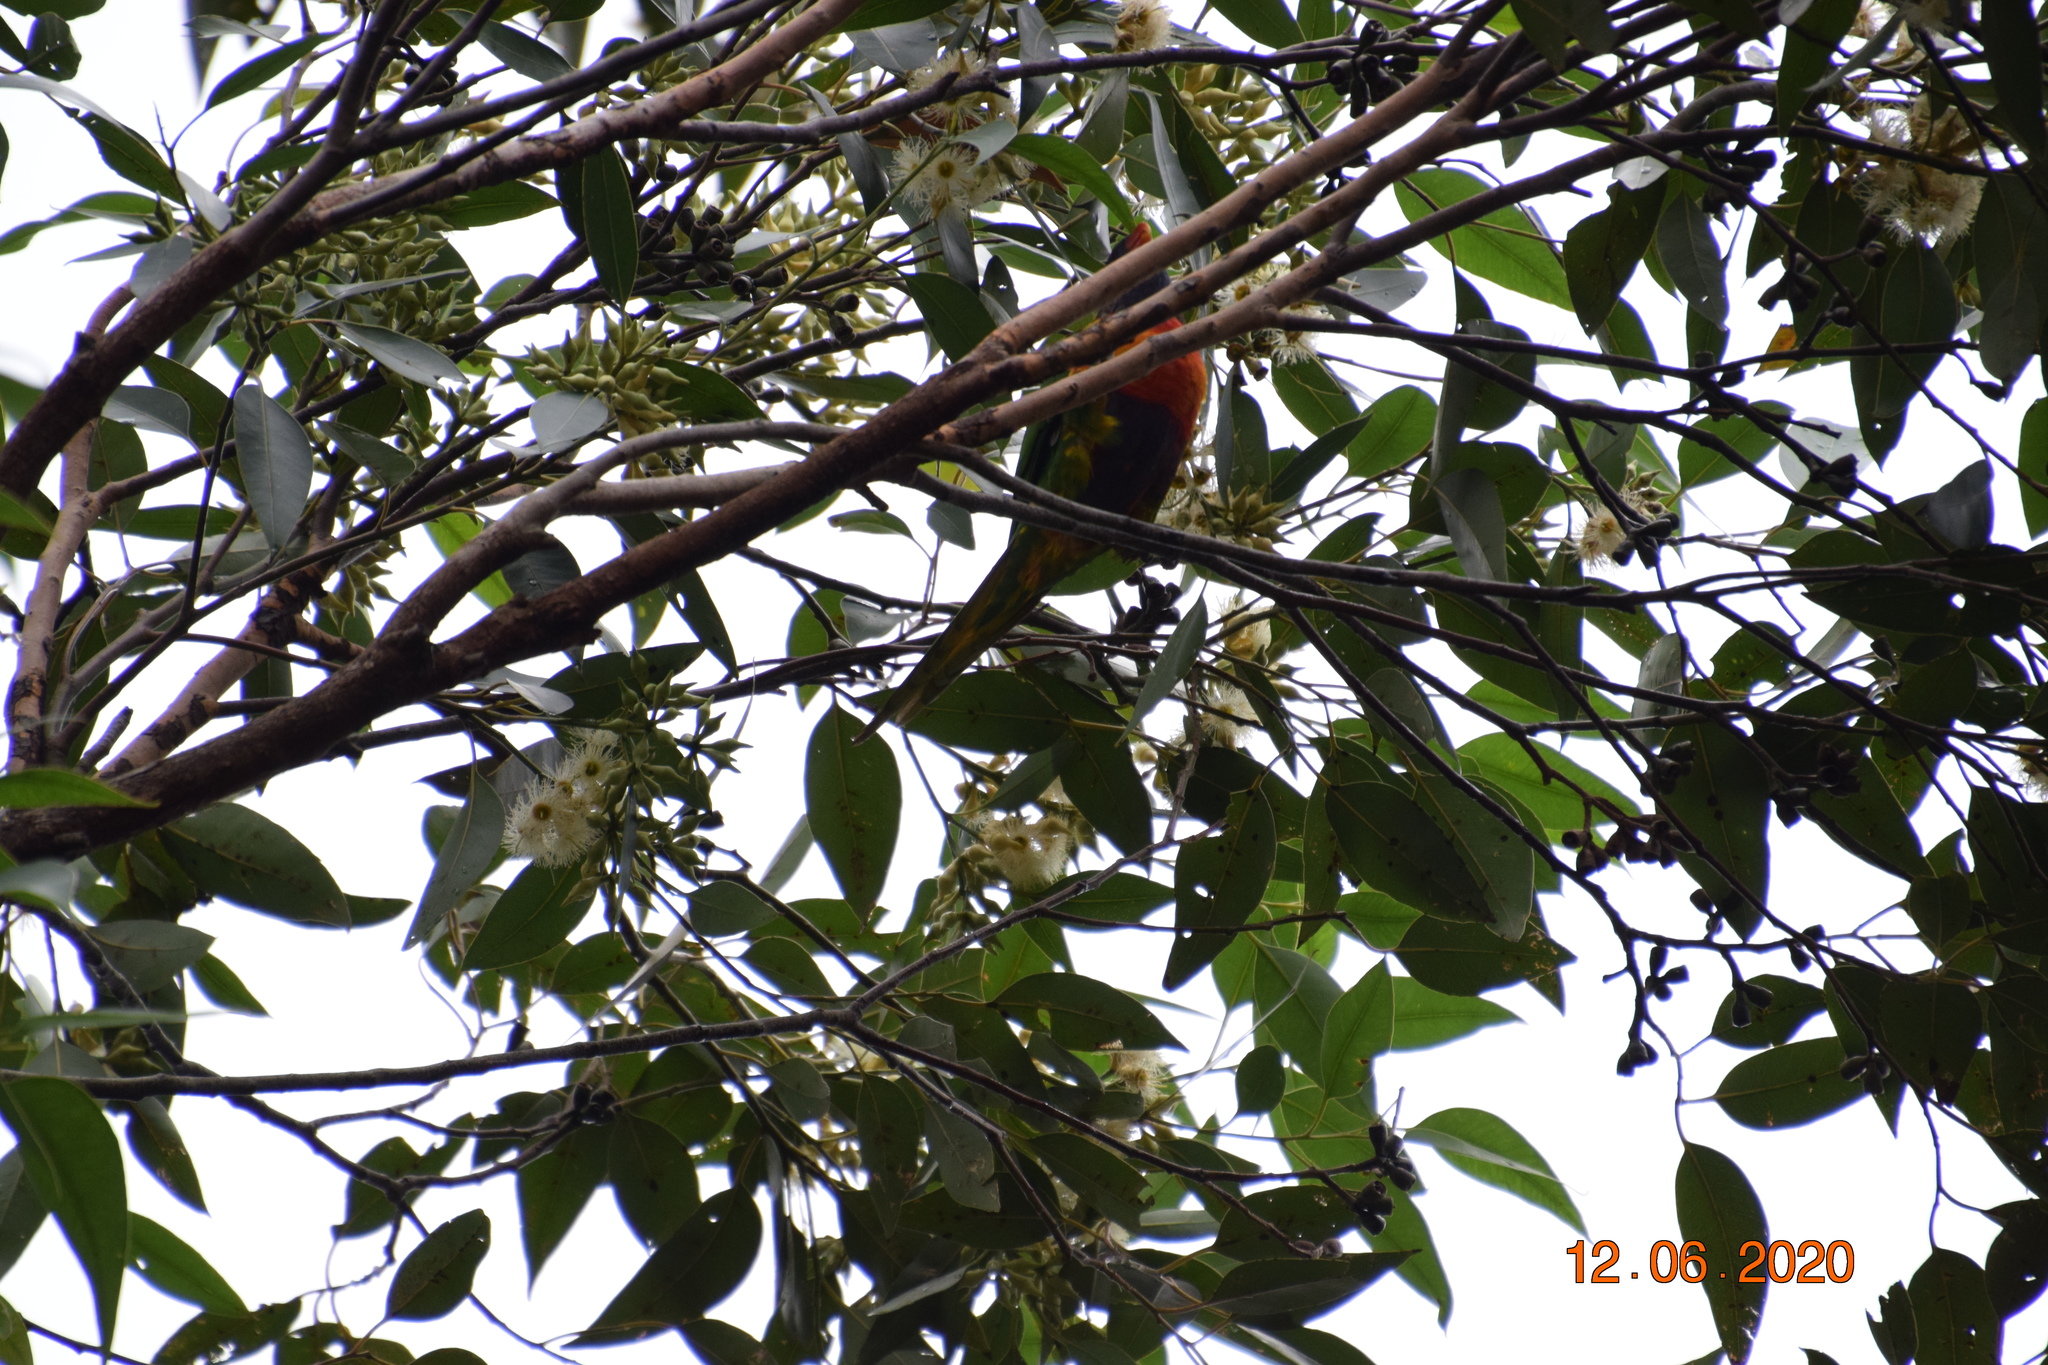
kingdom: Animalia
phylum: Chordata
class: Aves
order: Psittaciformes
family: Psittacidae
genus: Trichoglossus
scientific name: Trichoglossus haematodus
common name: Coconut lorikeet
